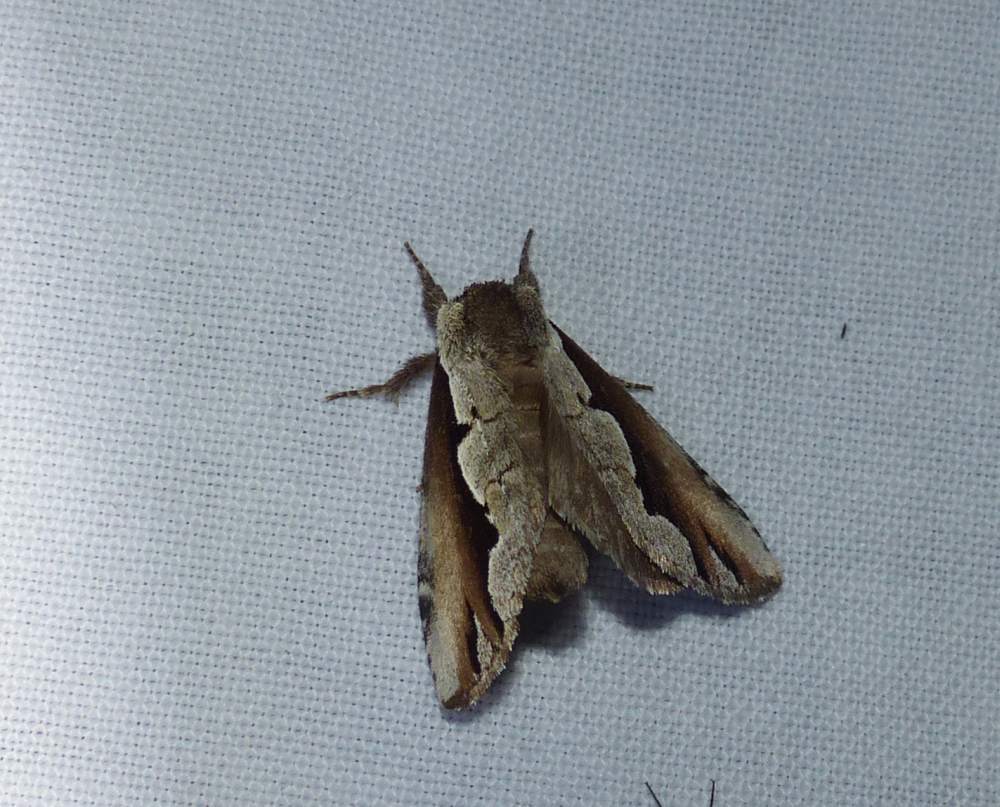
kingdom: Animalia
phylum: Arthropoda
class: Insecta
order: Lepidoptera
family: Notodontidae
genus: Nerice
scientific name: Nerice bidentata
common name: Double-toothed prominent
